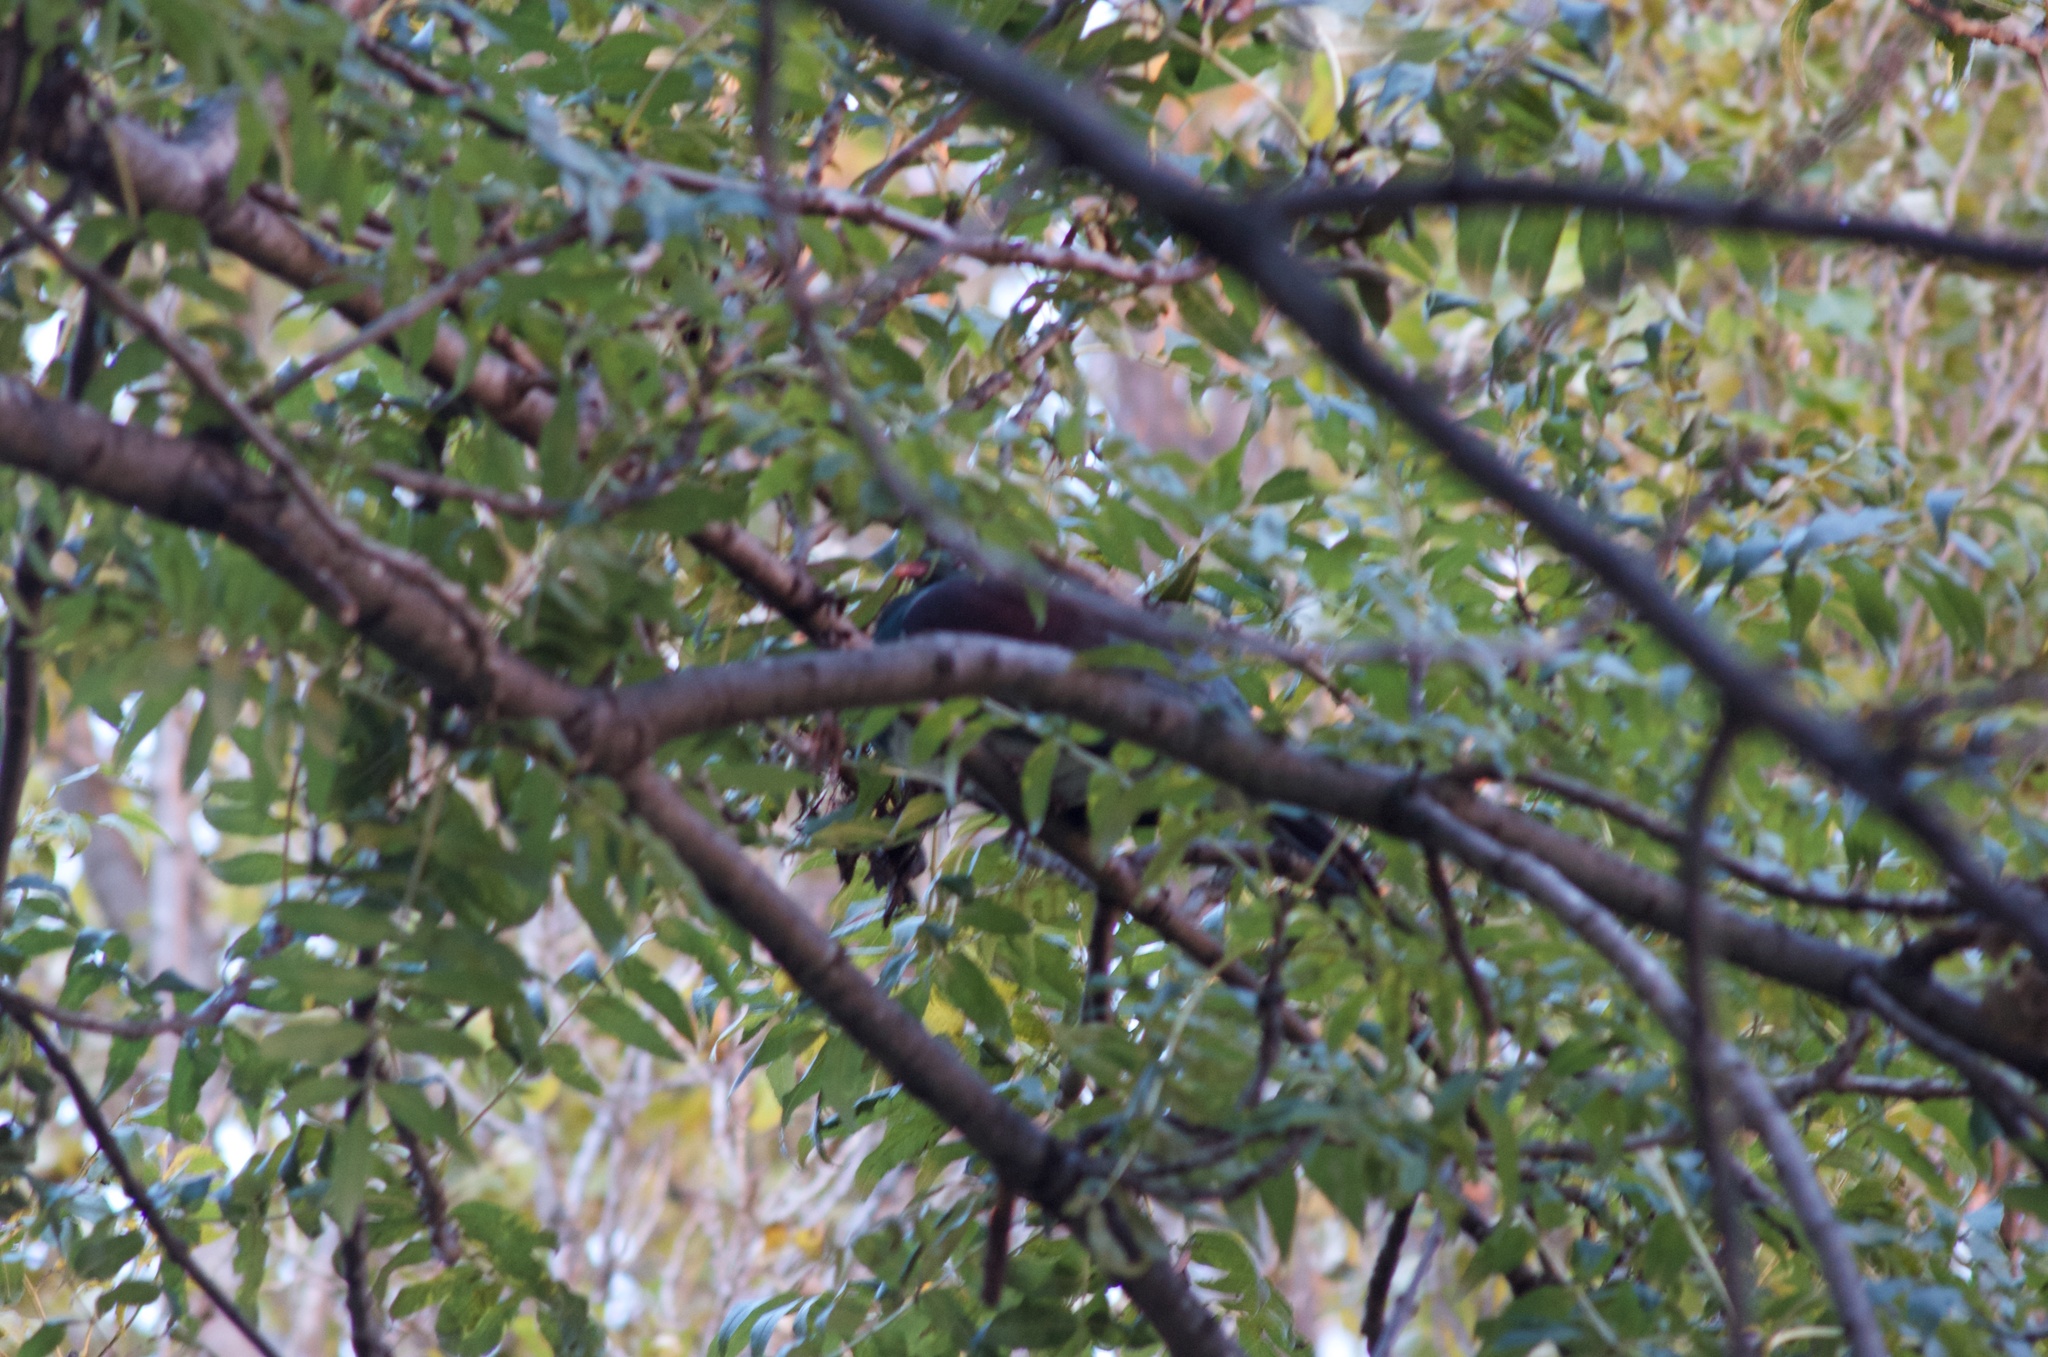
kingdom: Animalia
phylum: Chordata
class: Aves
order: Columbiformes
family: Columbidae
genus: Hemiphaga
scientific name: Hemiphaga novaeseelandiae
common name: New zealand pigeon
